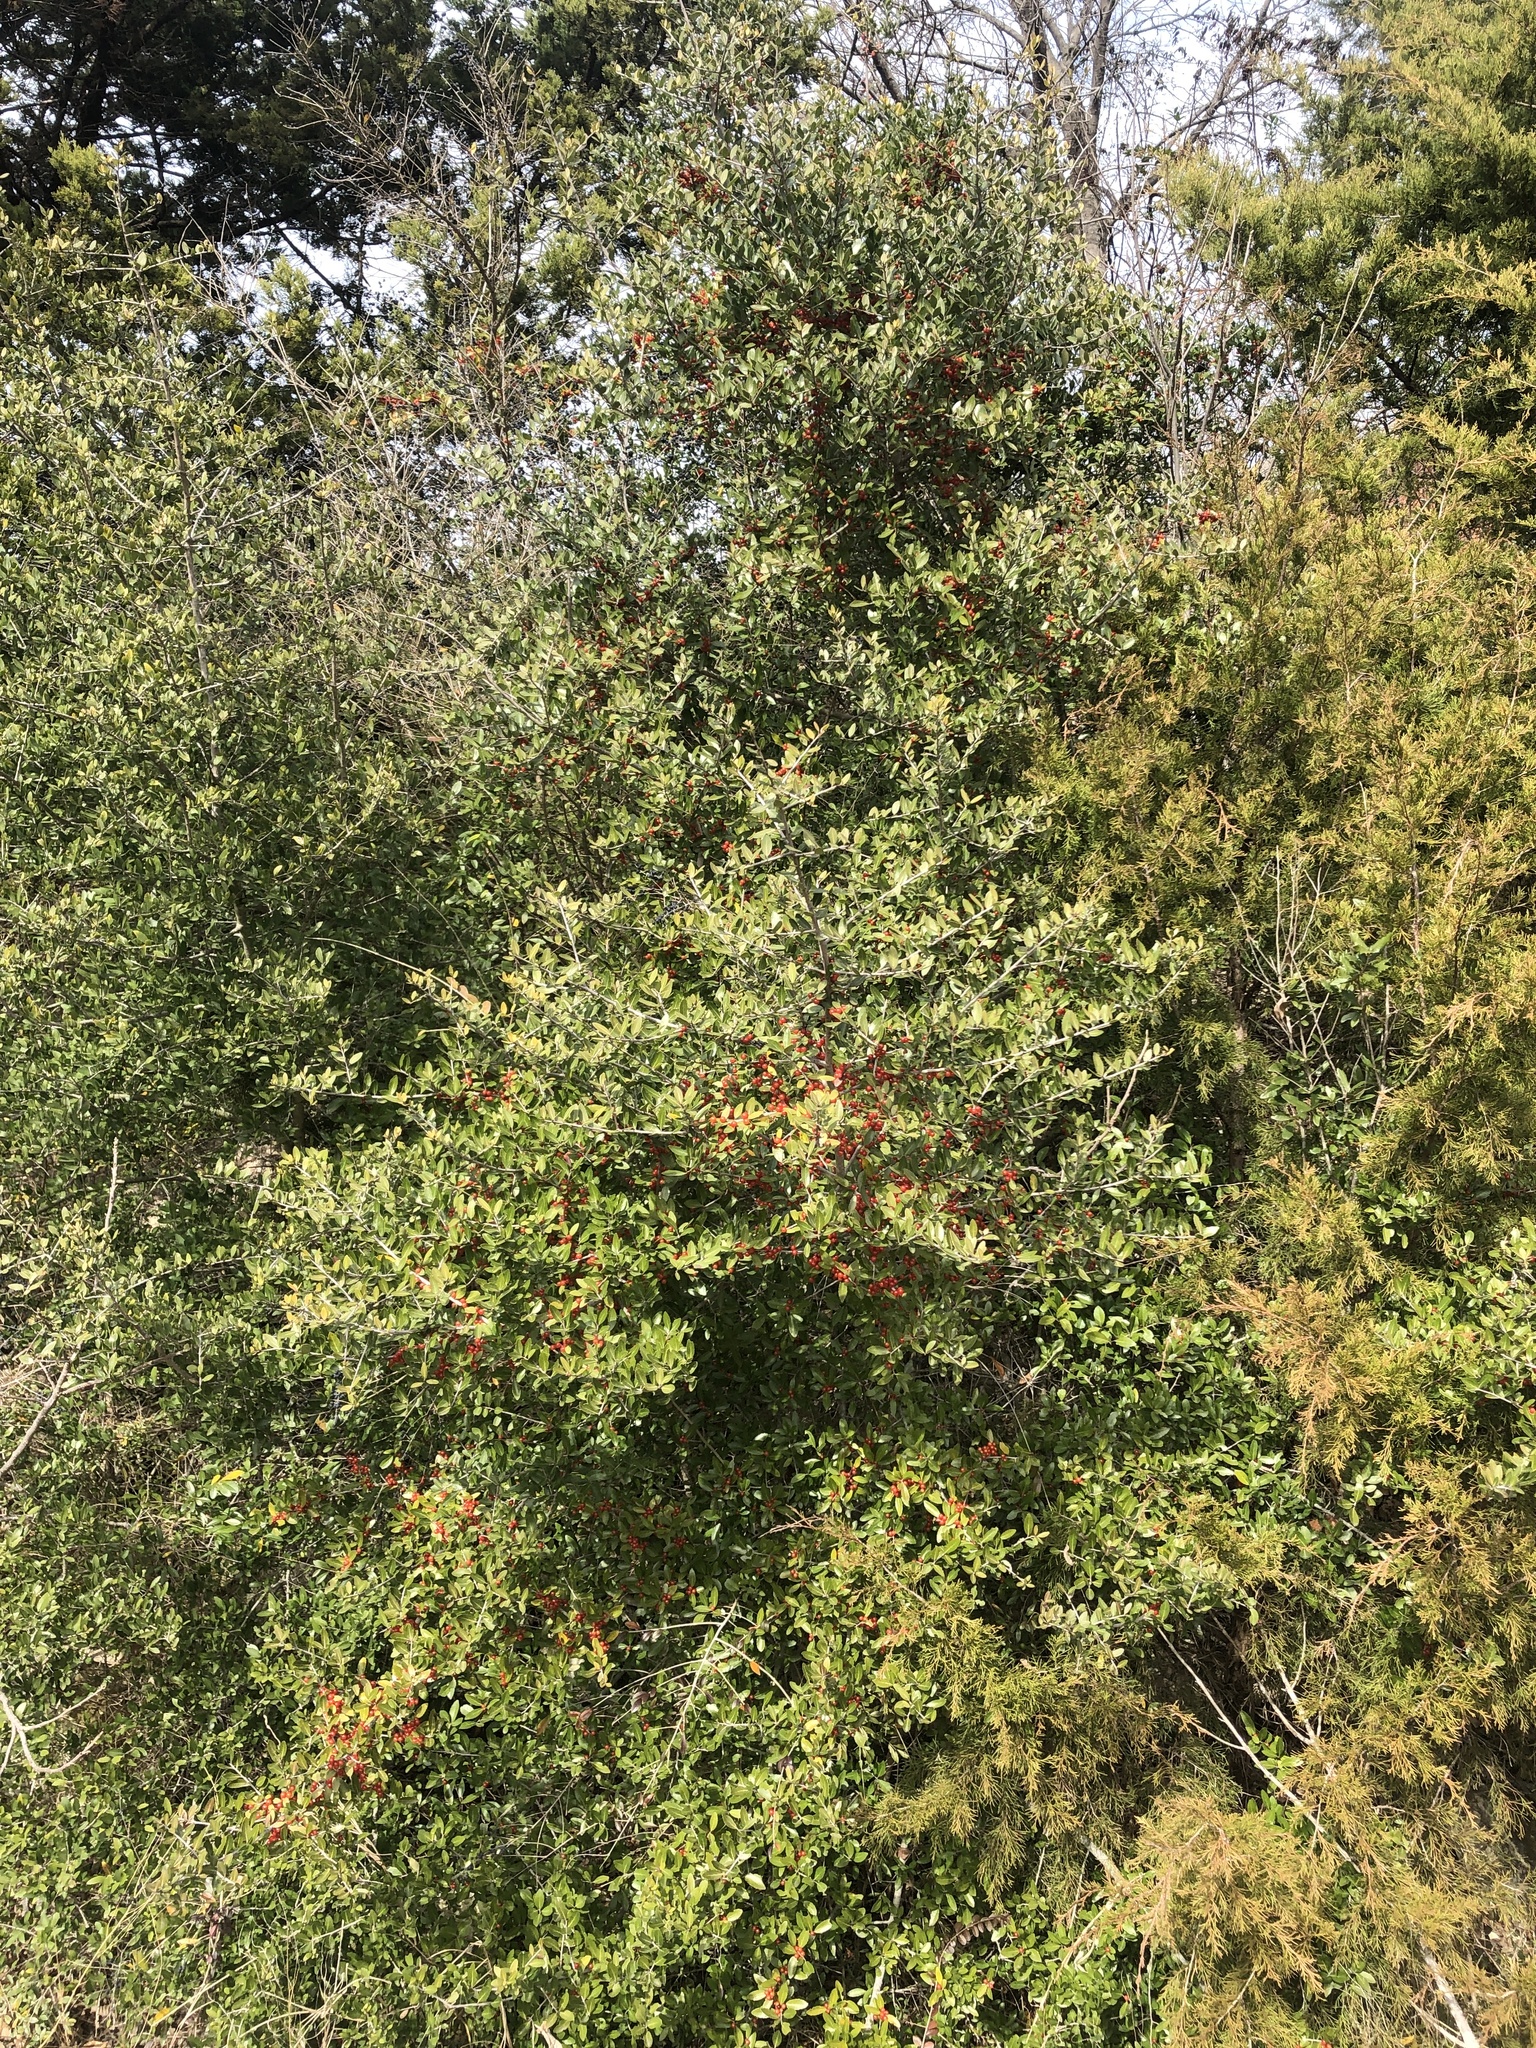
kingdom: Plantae
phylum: Tracheophyta
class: Magnoliopsida
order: Aquifoliales
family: Aquifoliaceae
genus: Ilex
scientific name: Ilex vomitoria
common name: Yaupon holly
